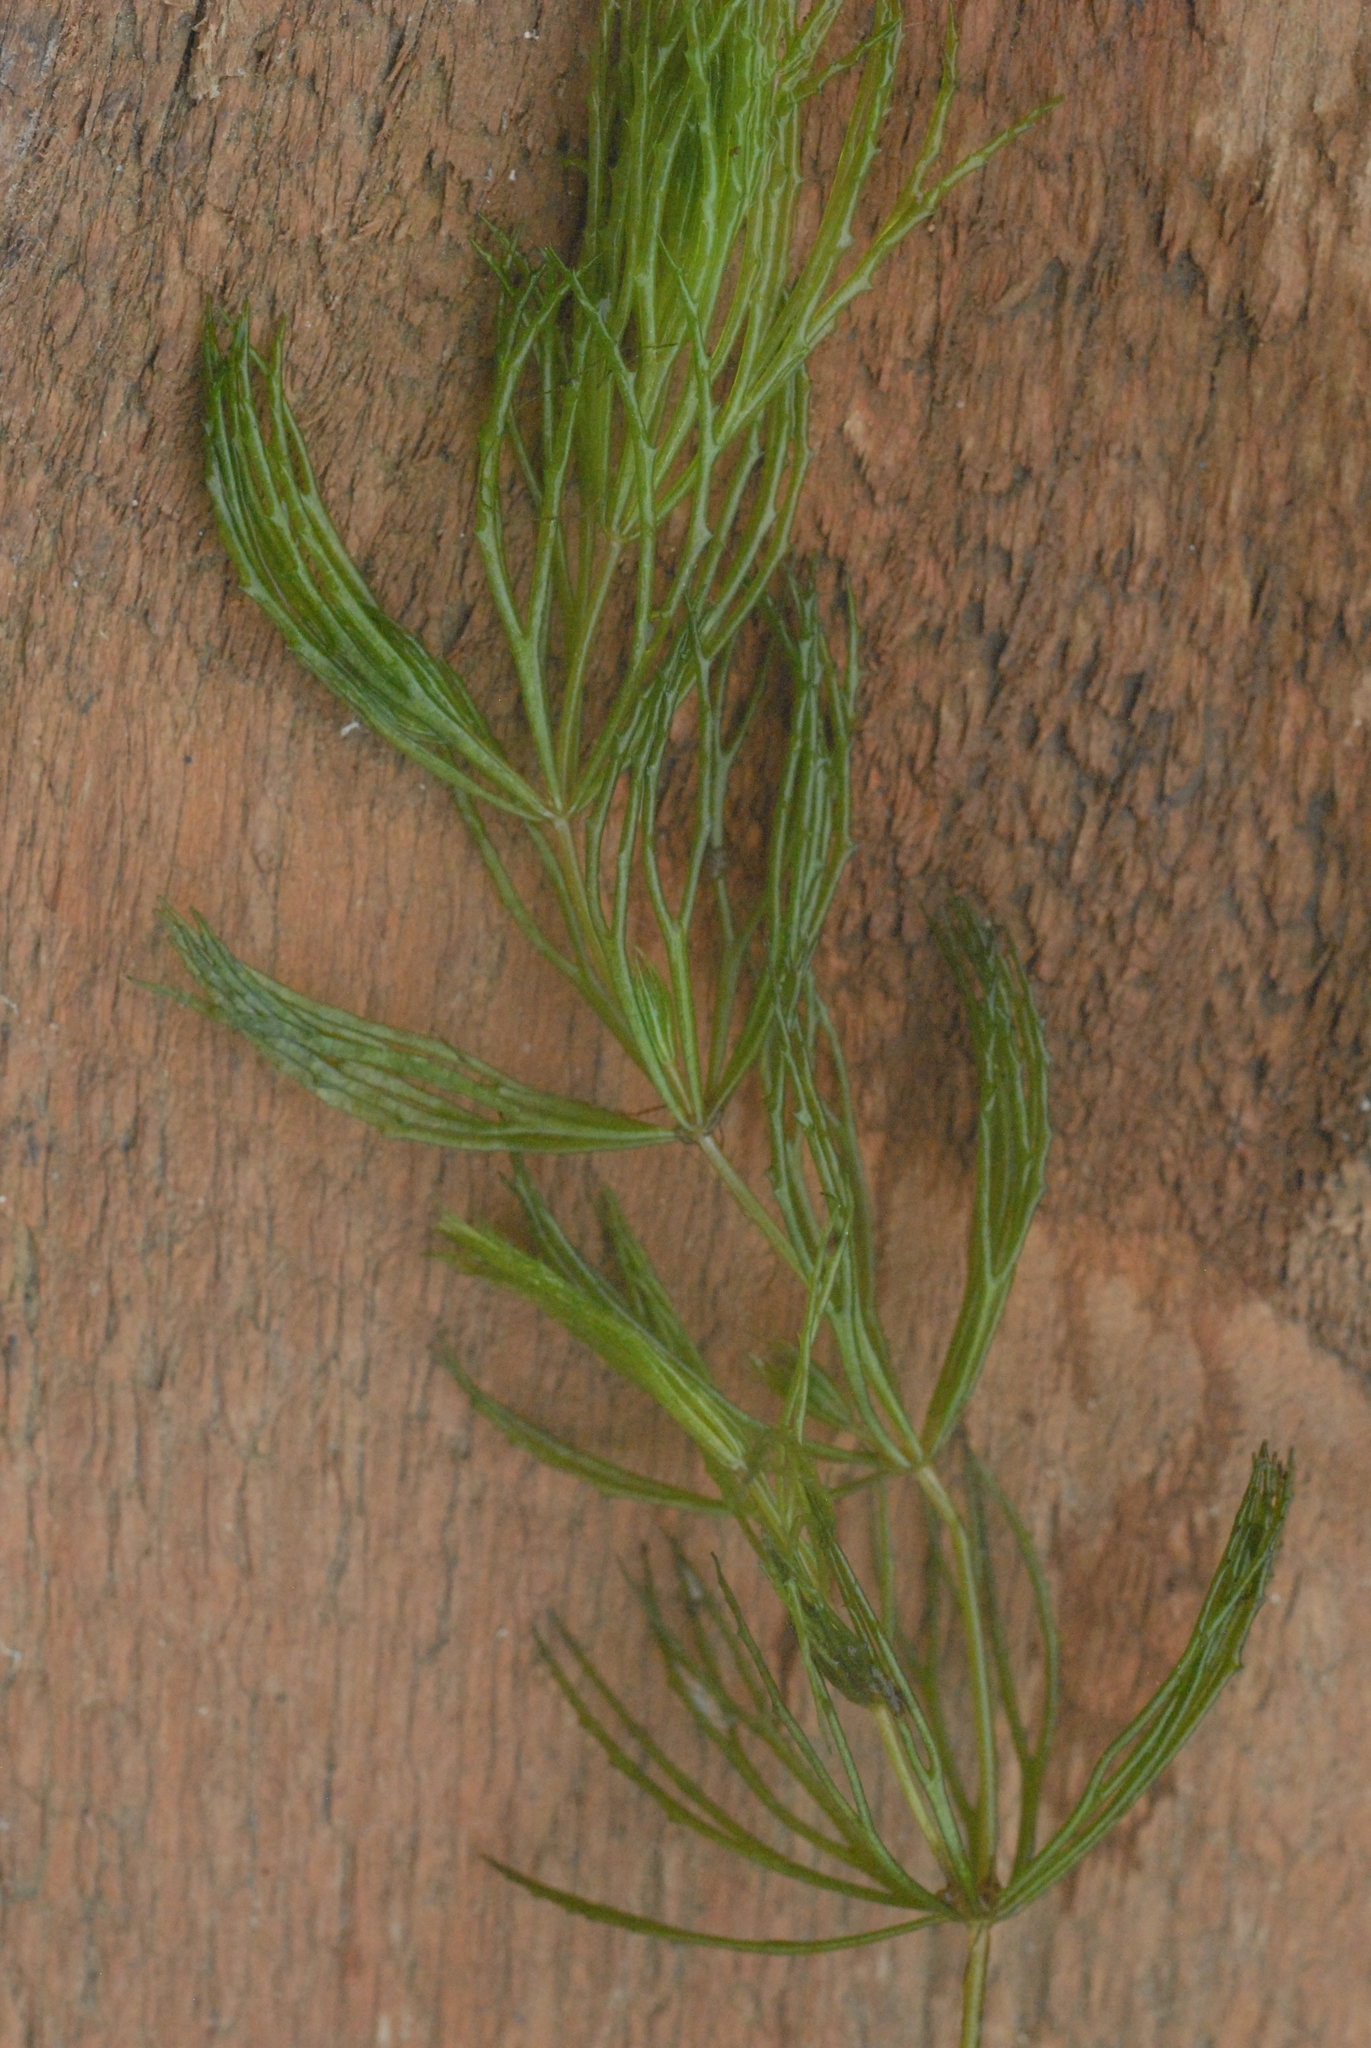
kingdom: Plantae
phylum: Tracheophyta
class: Magnoliopsida
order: Ceratophyllales
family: Ceratophyllaceae
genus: Ceratophyllum
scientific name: Ceratophyllum demersum
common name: Rigid hornwort
